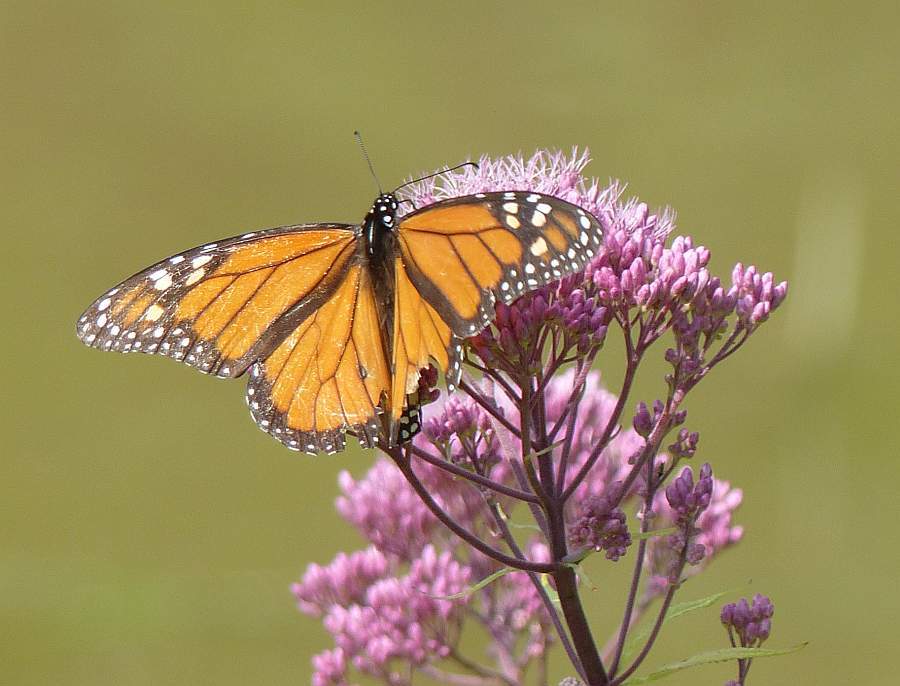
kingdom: Animalia
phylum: Arthropoda
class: Insecta
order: Lepidoptera
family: Nymphalidae
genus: Danaus
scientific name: Danaus plexippus
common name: Monarch
